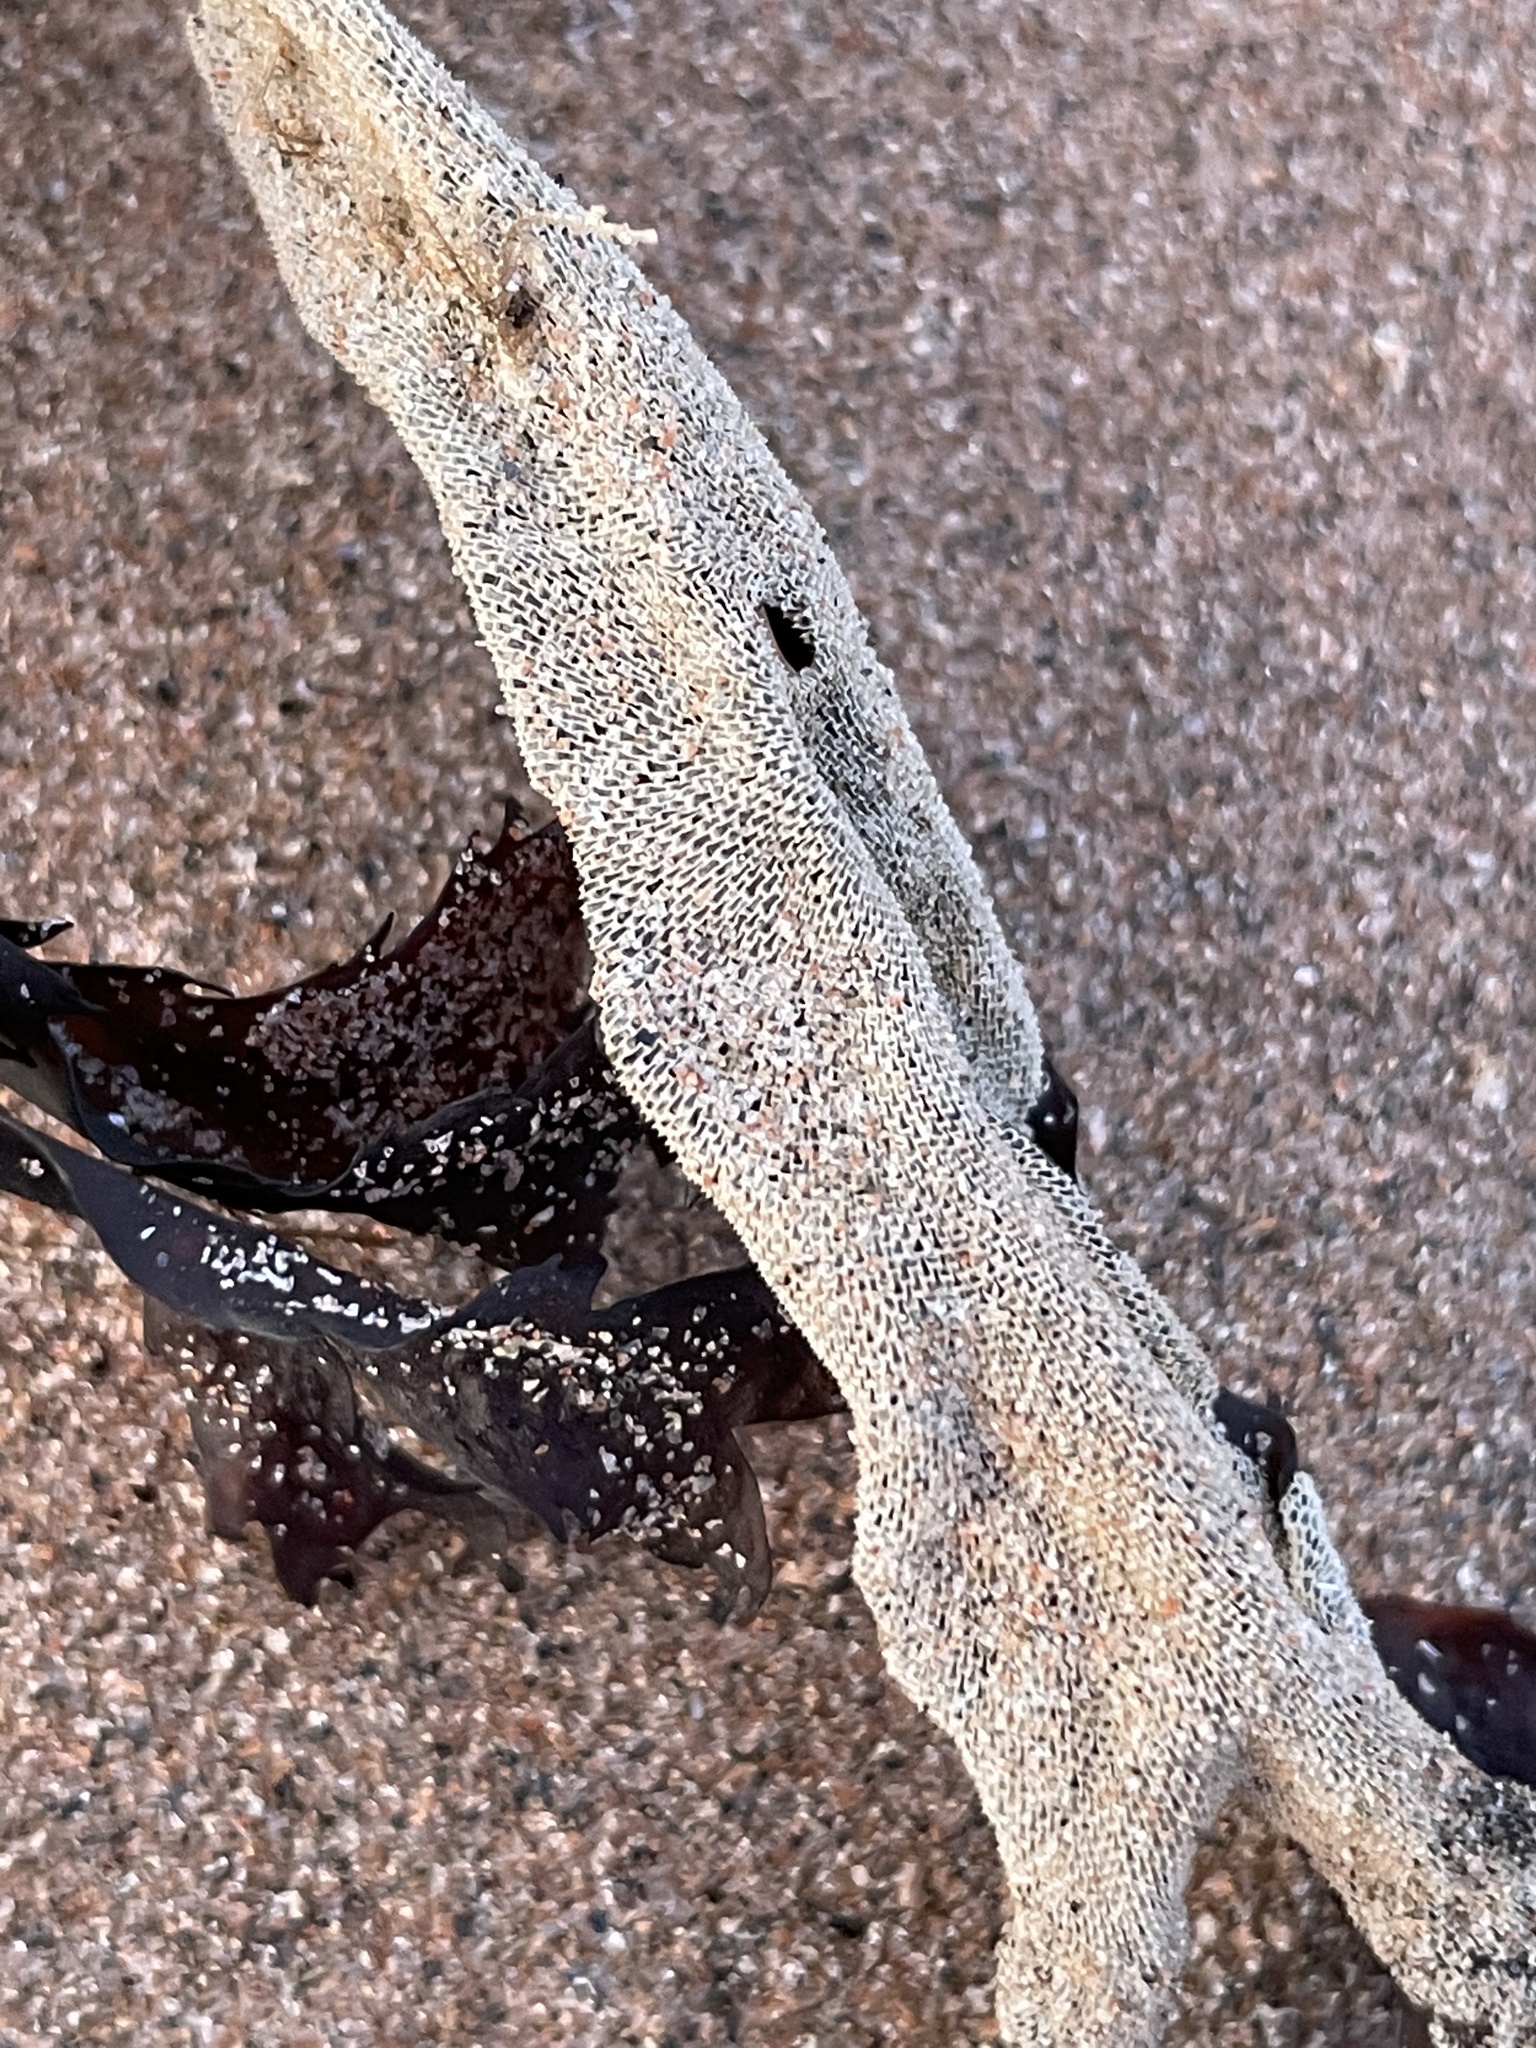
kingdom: Animalia
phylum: Bryozoa
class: Gymnolaemata
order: Cheilostomatida
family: Membraniporidae
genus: Membranipora
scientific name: Membranipora membranacea
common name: Sea mat
